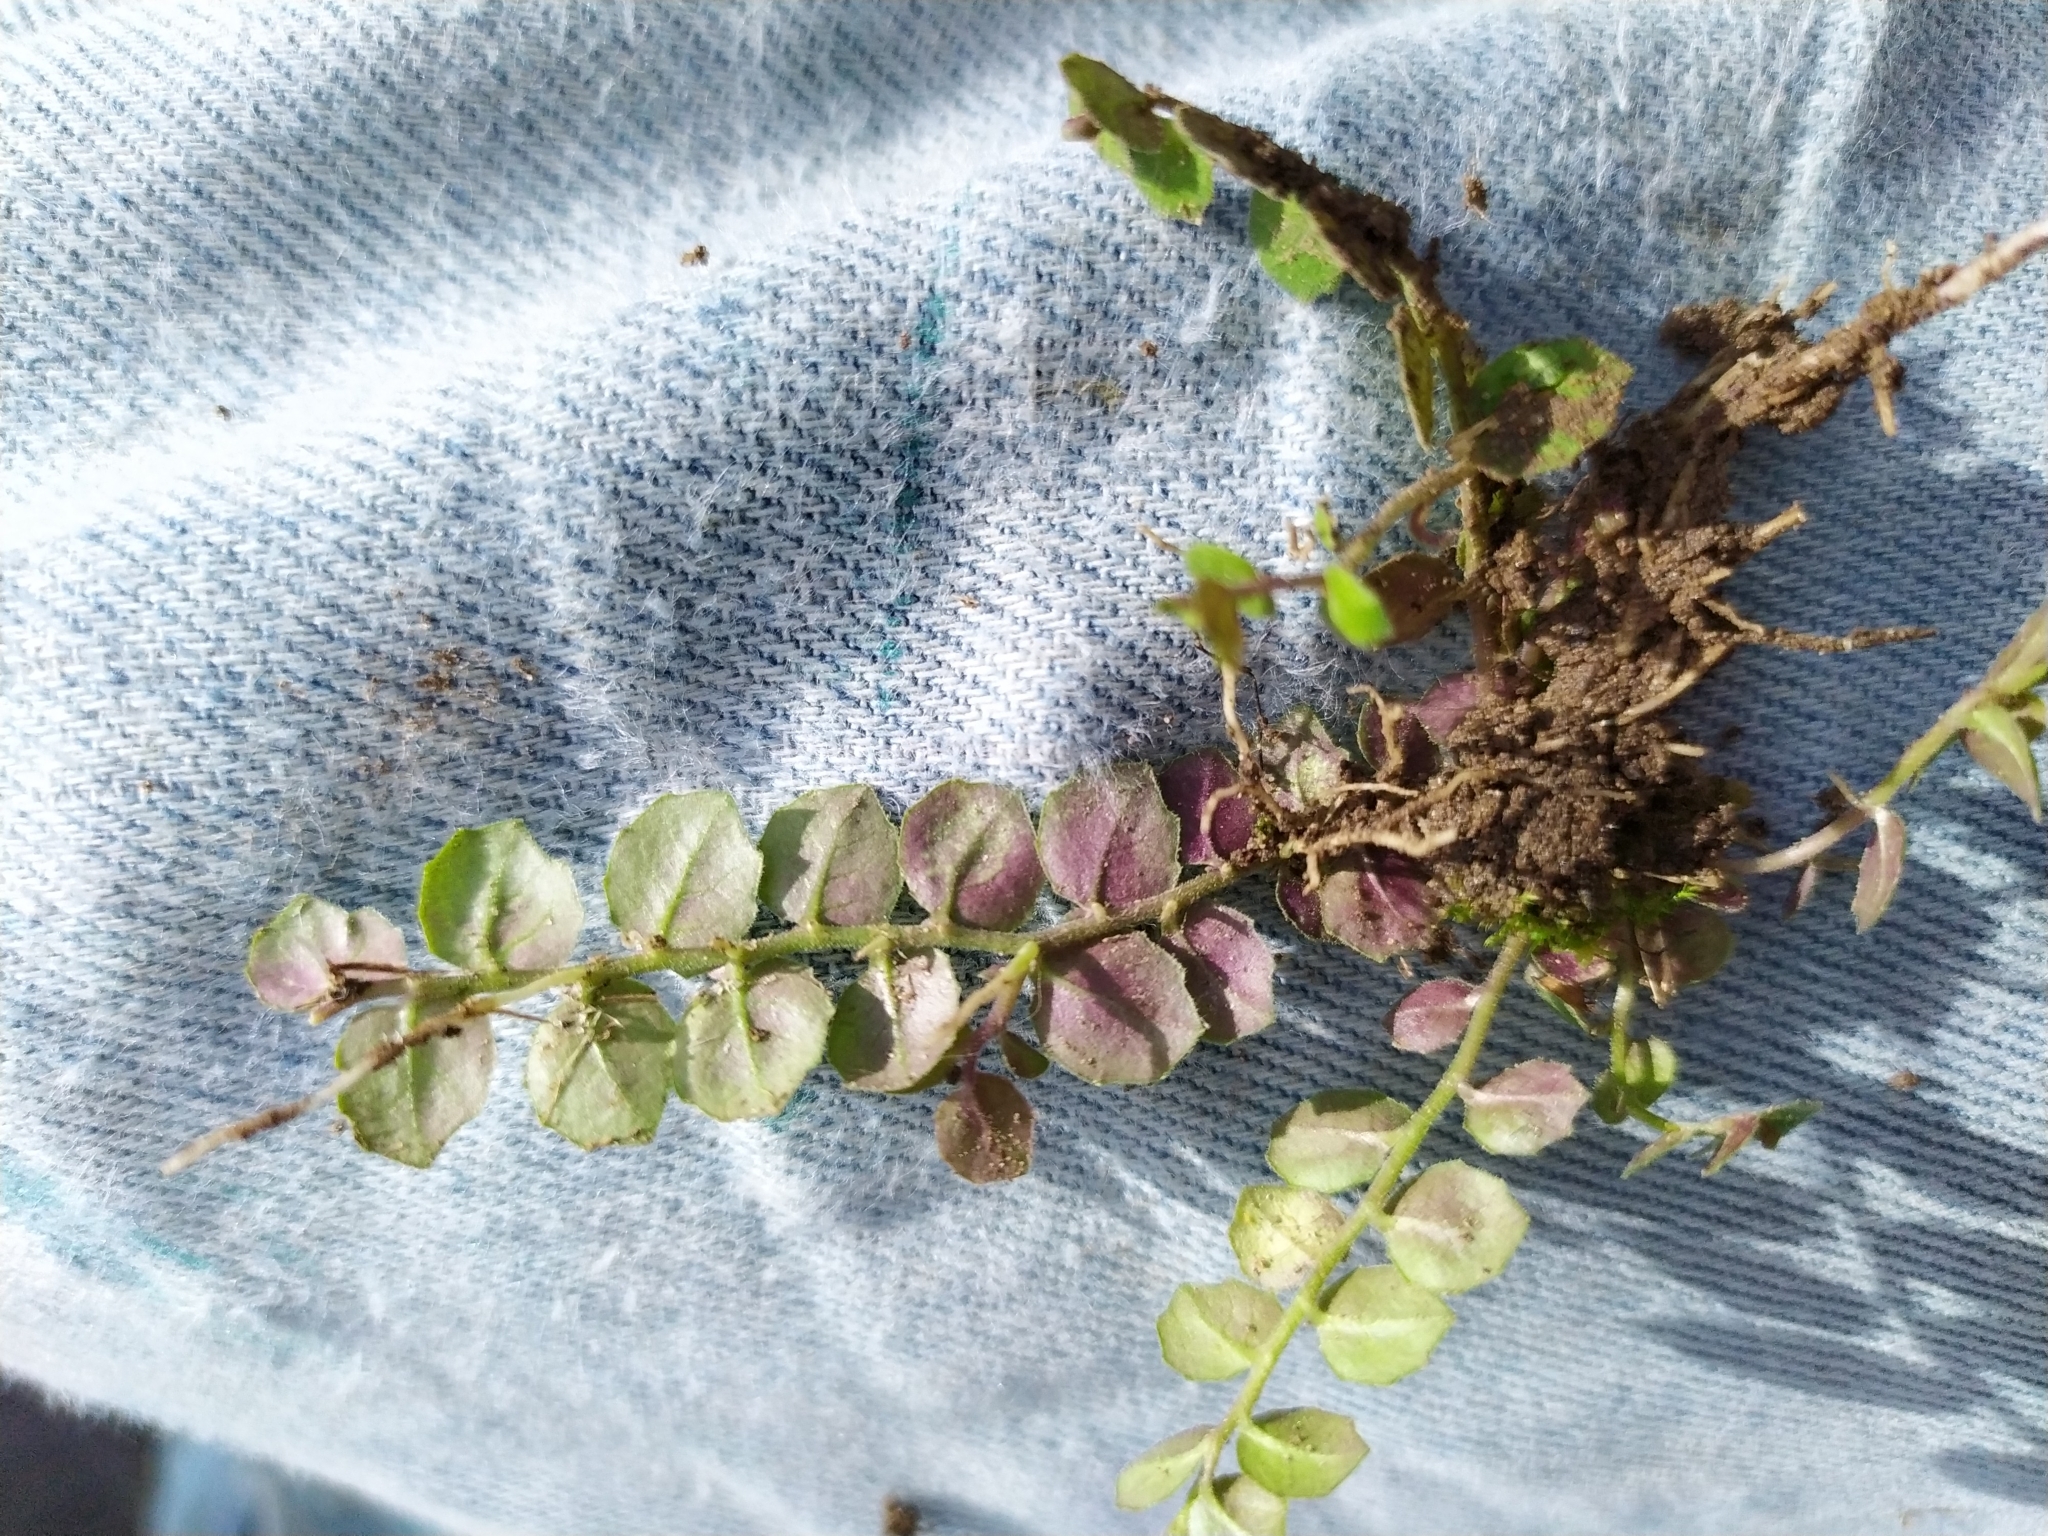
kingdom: Plantae
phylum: Tracheophyta
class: Magnoliopsida
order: Asterales
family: Campanulaceae
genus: Lobelia
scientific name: Lobelia pedunculata
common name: Matted pratia
